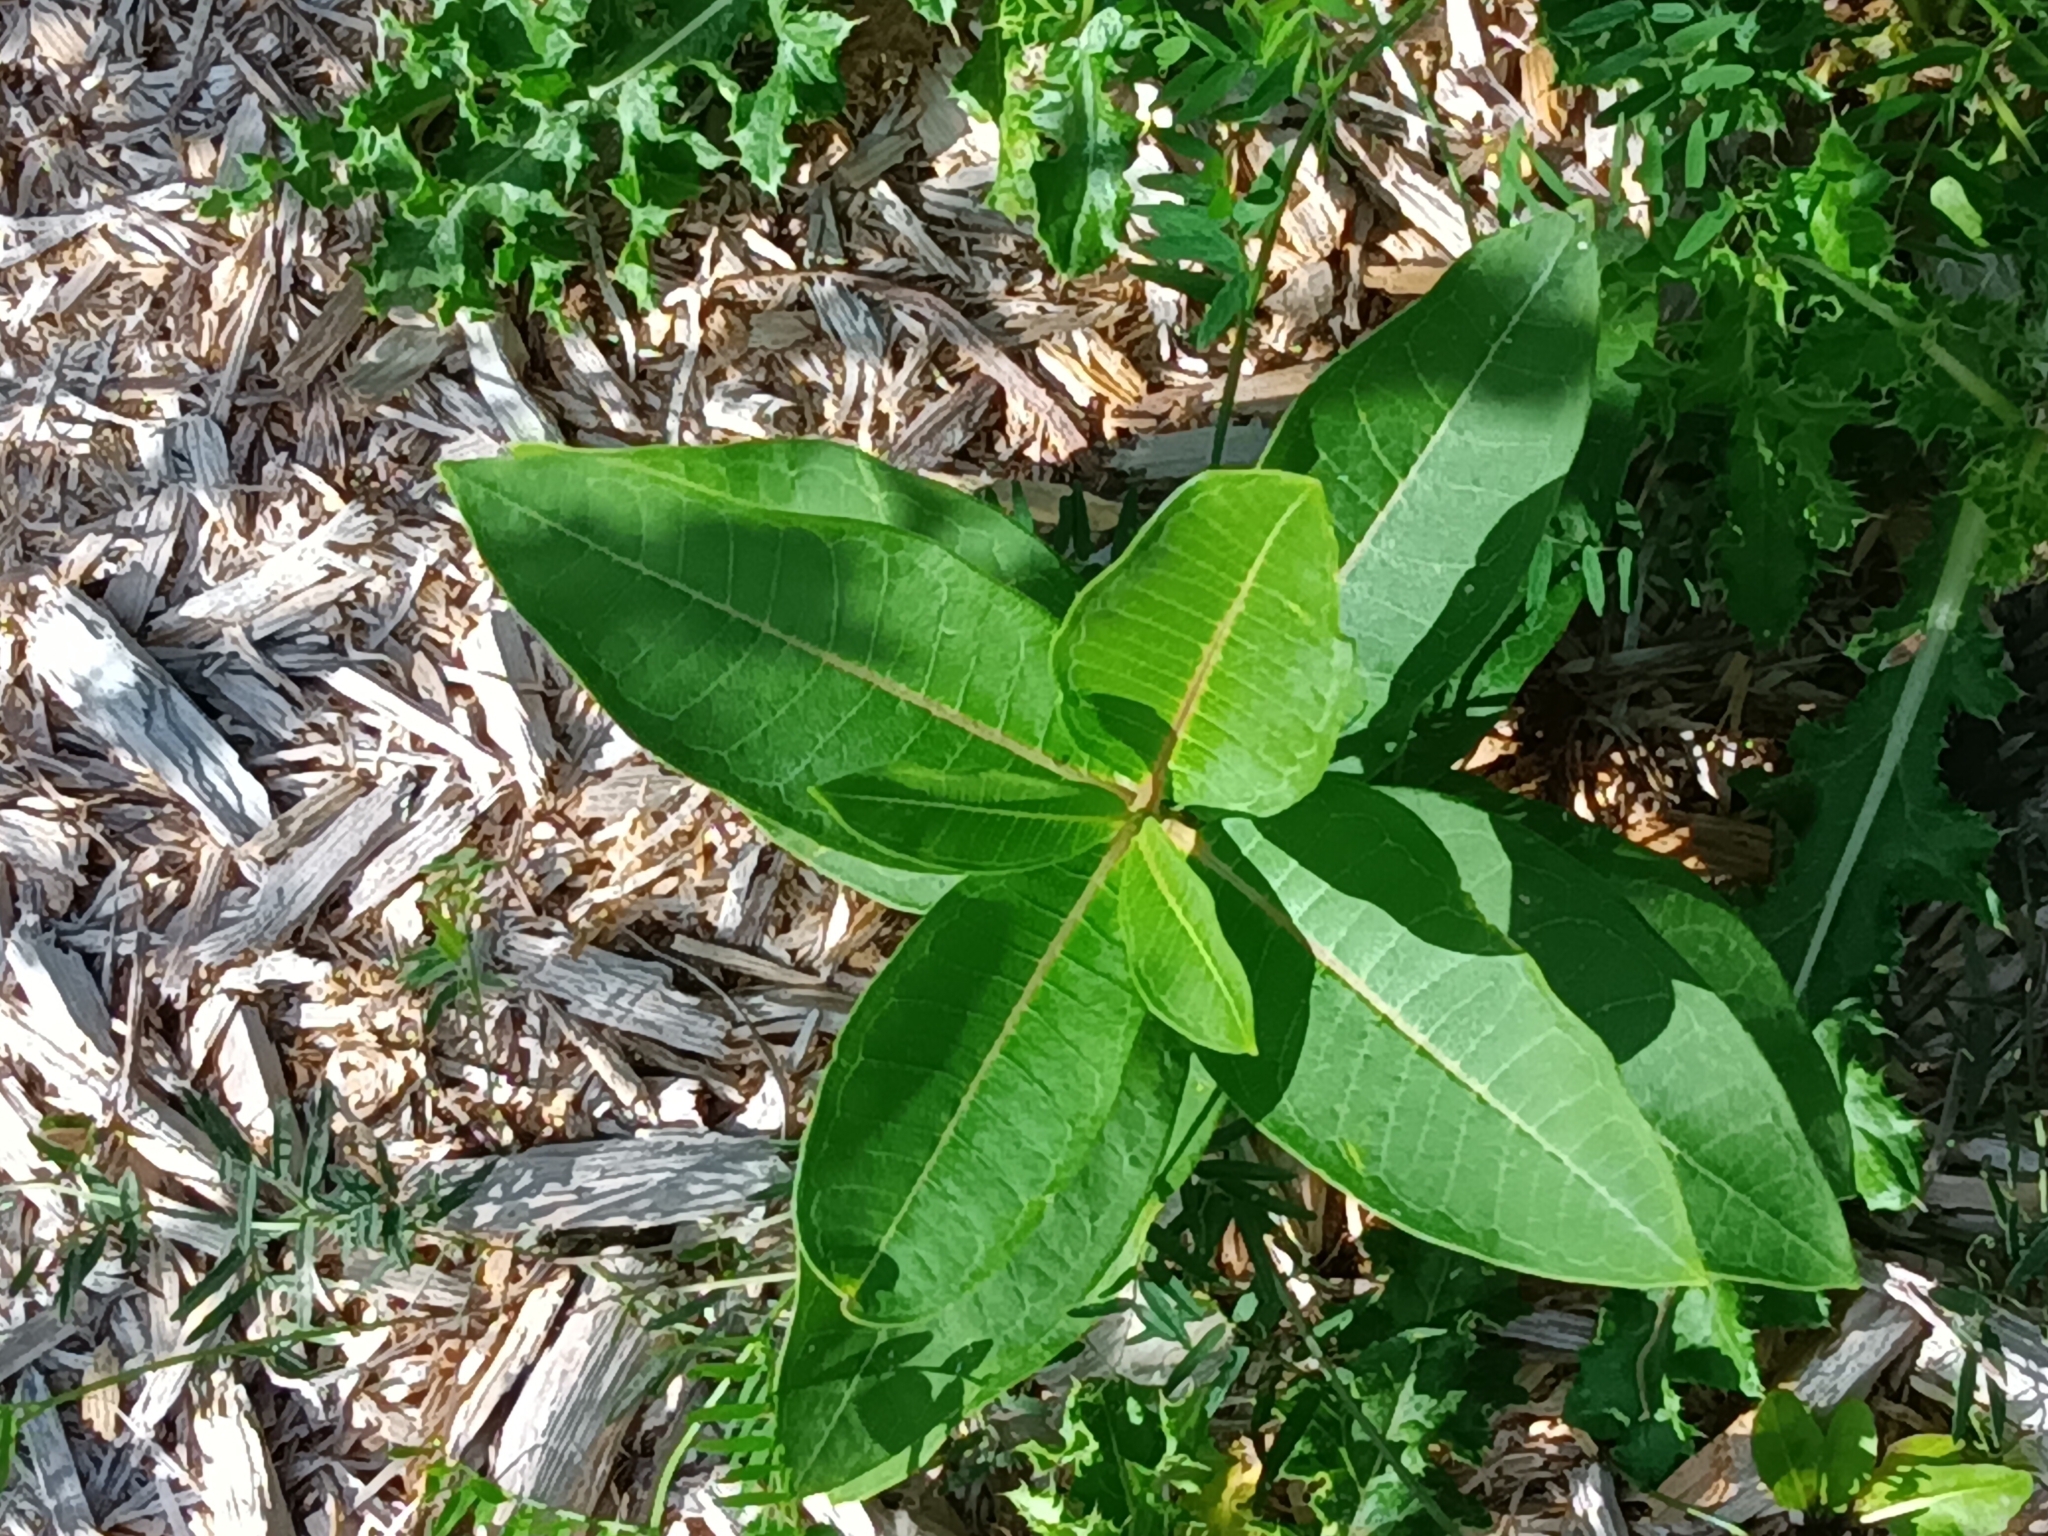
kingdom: Plantae
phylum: Tracheophyta
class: Magnoliopsida
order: Gentianales
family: Apocynaceae
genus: Asclepias
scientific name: Asclepias syriaca
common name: Common milkweed
